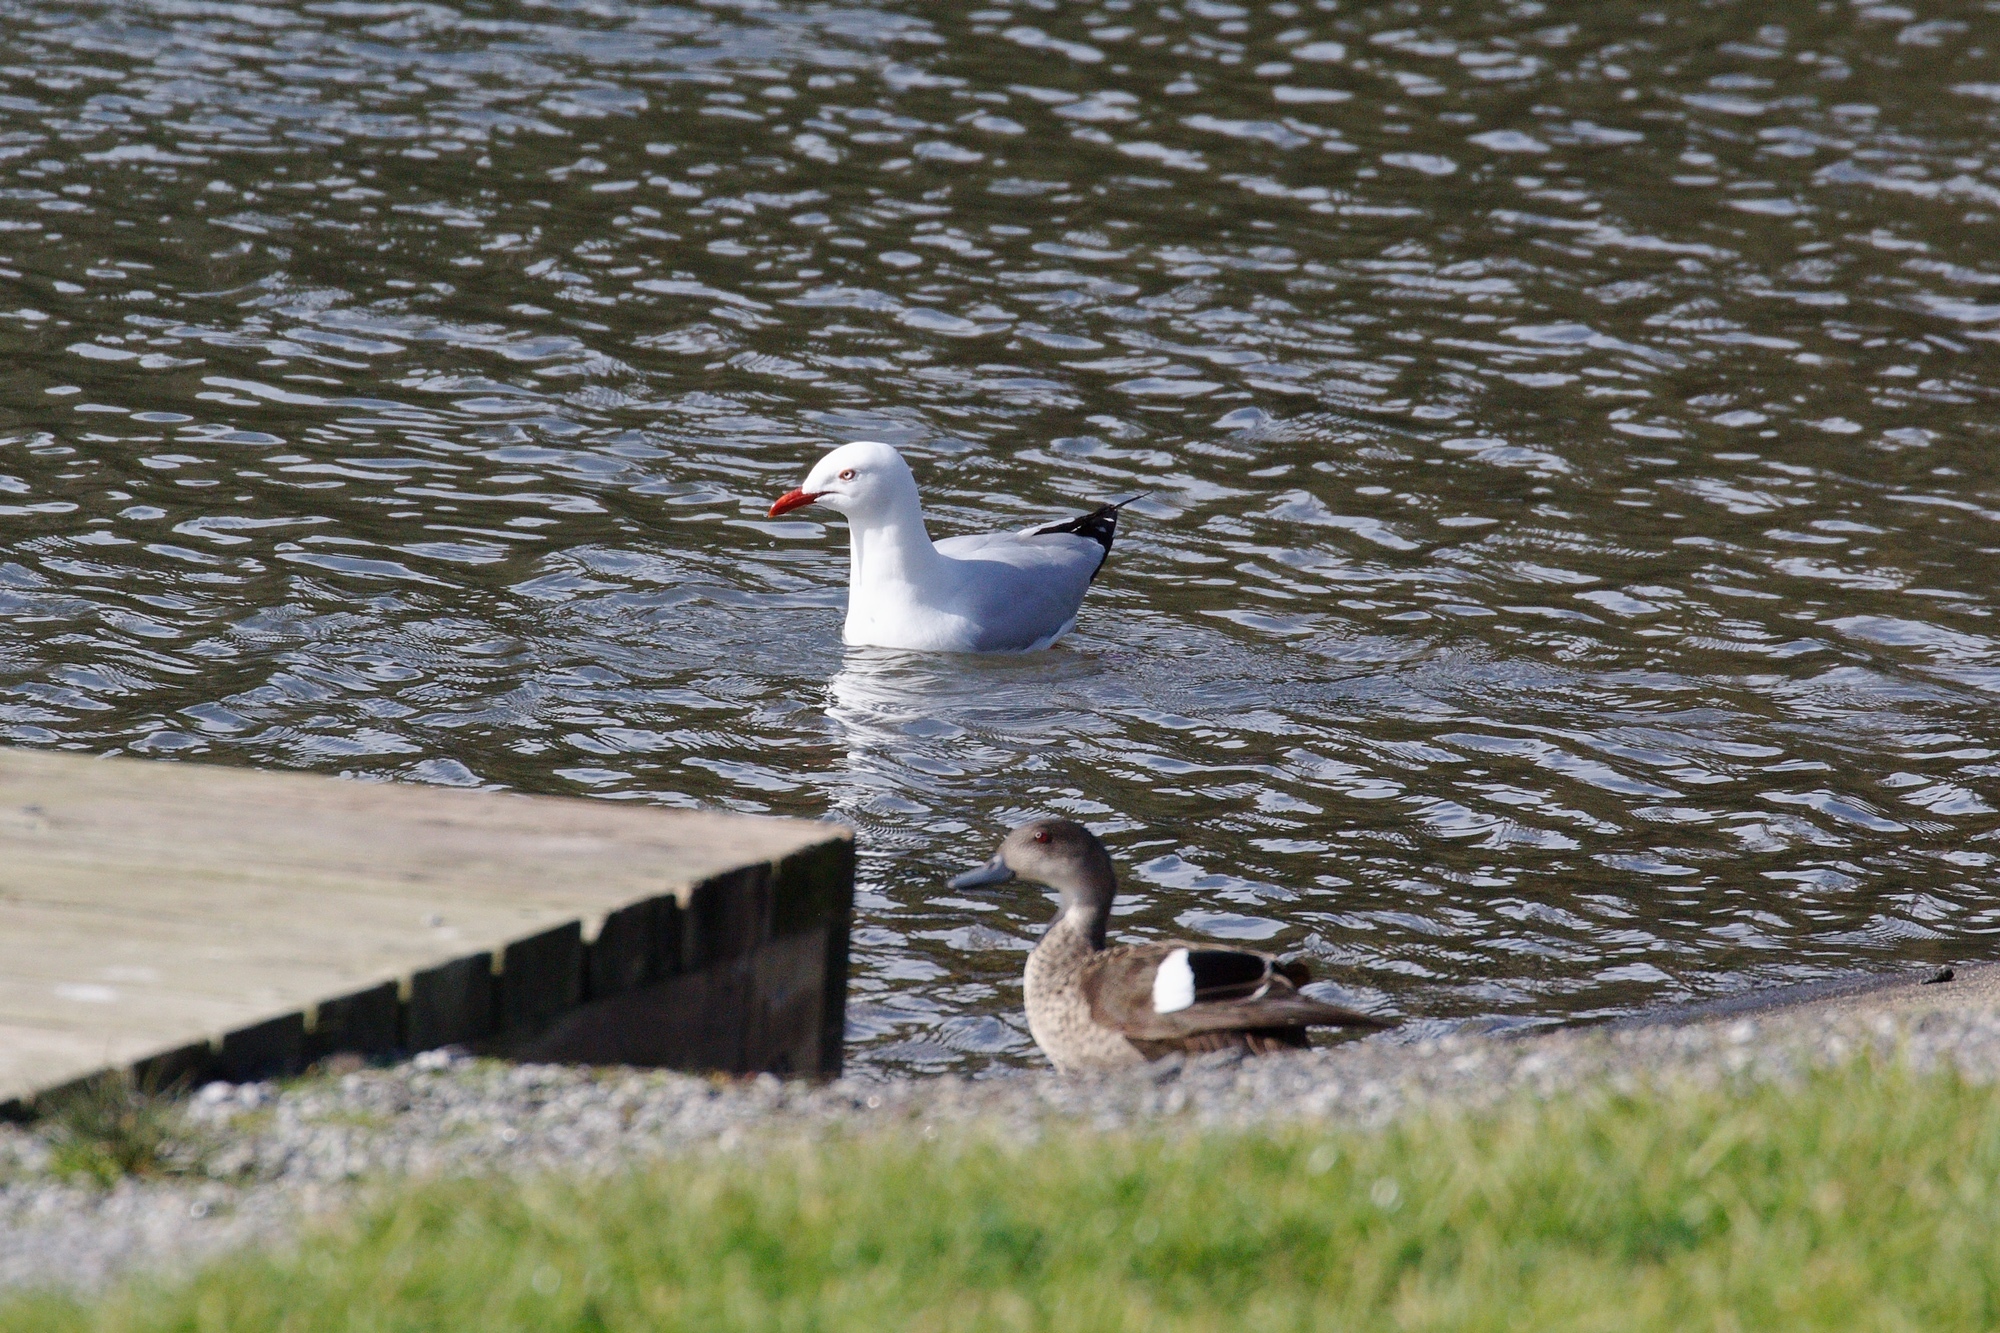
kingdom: Animalia
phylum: Chordata
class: Aves
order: Charadriiformes
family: Laridae
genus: Chroicocephalus
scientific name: Chroicocephalus novaehollandiae
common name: Silver gull
